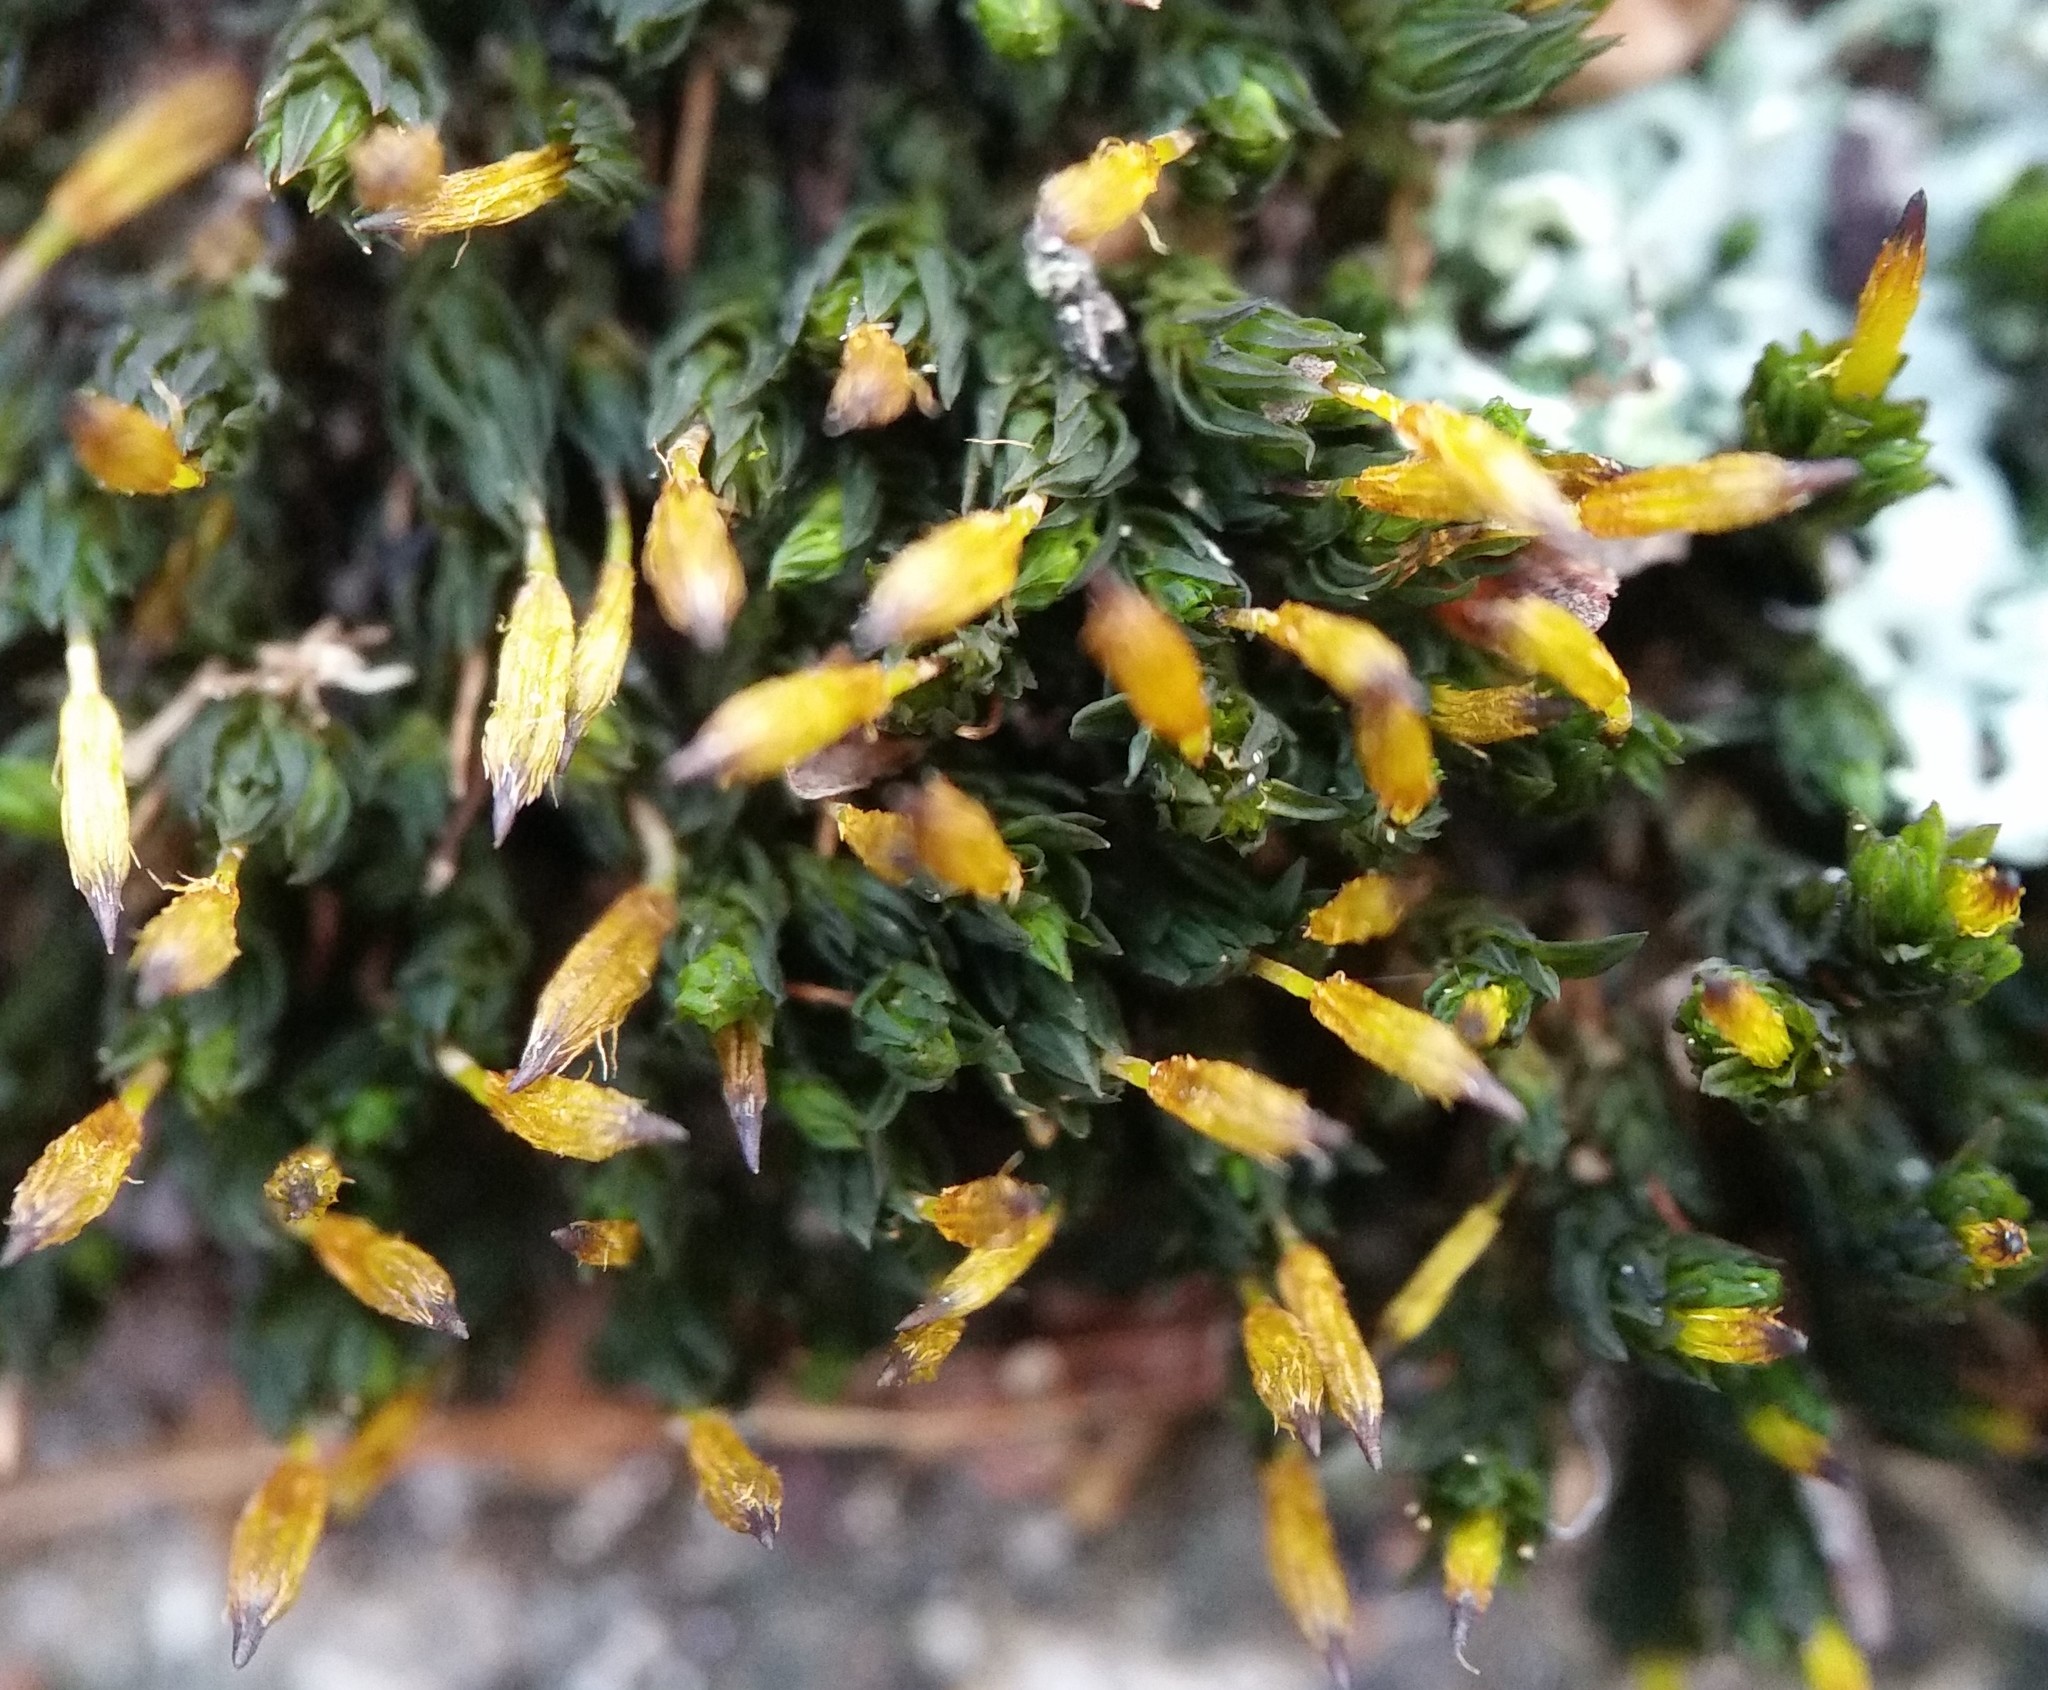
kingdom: Plantae
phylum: Bryophyta
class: Bryopsida
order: Orthotrichales
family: Orthotrichaceae
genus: Orthotrichum
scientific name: Orthotrichum anomalum
